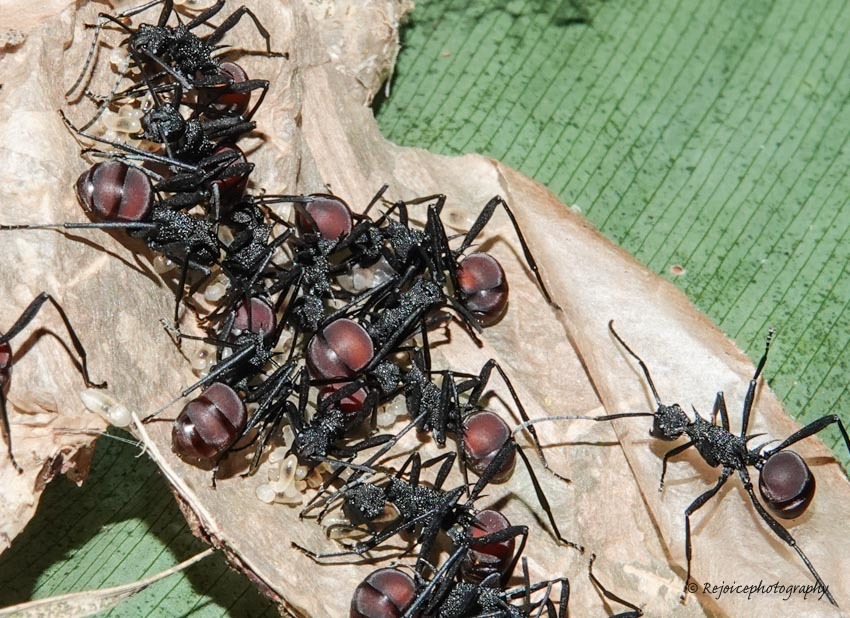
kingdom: Animalia
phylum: Arthropoda
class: Insecta
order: Hymenoptera
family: Formicidae
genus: Polyrhachis
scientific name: Polyrhachis armata
